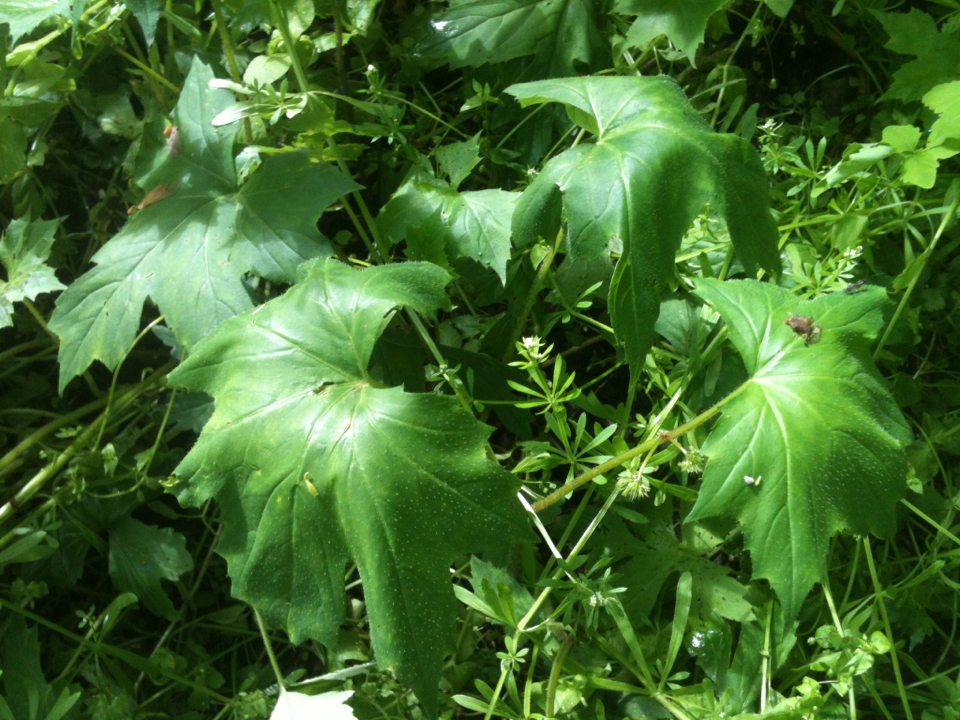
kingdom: Plantae
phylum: Tracheophyta
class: Magnoliopsida
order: Boraginales
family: Hydrophyllaceae
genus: Hydrophyllum
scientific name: Hydrophyllum canadense
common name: Canada waterleaf
